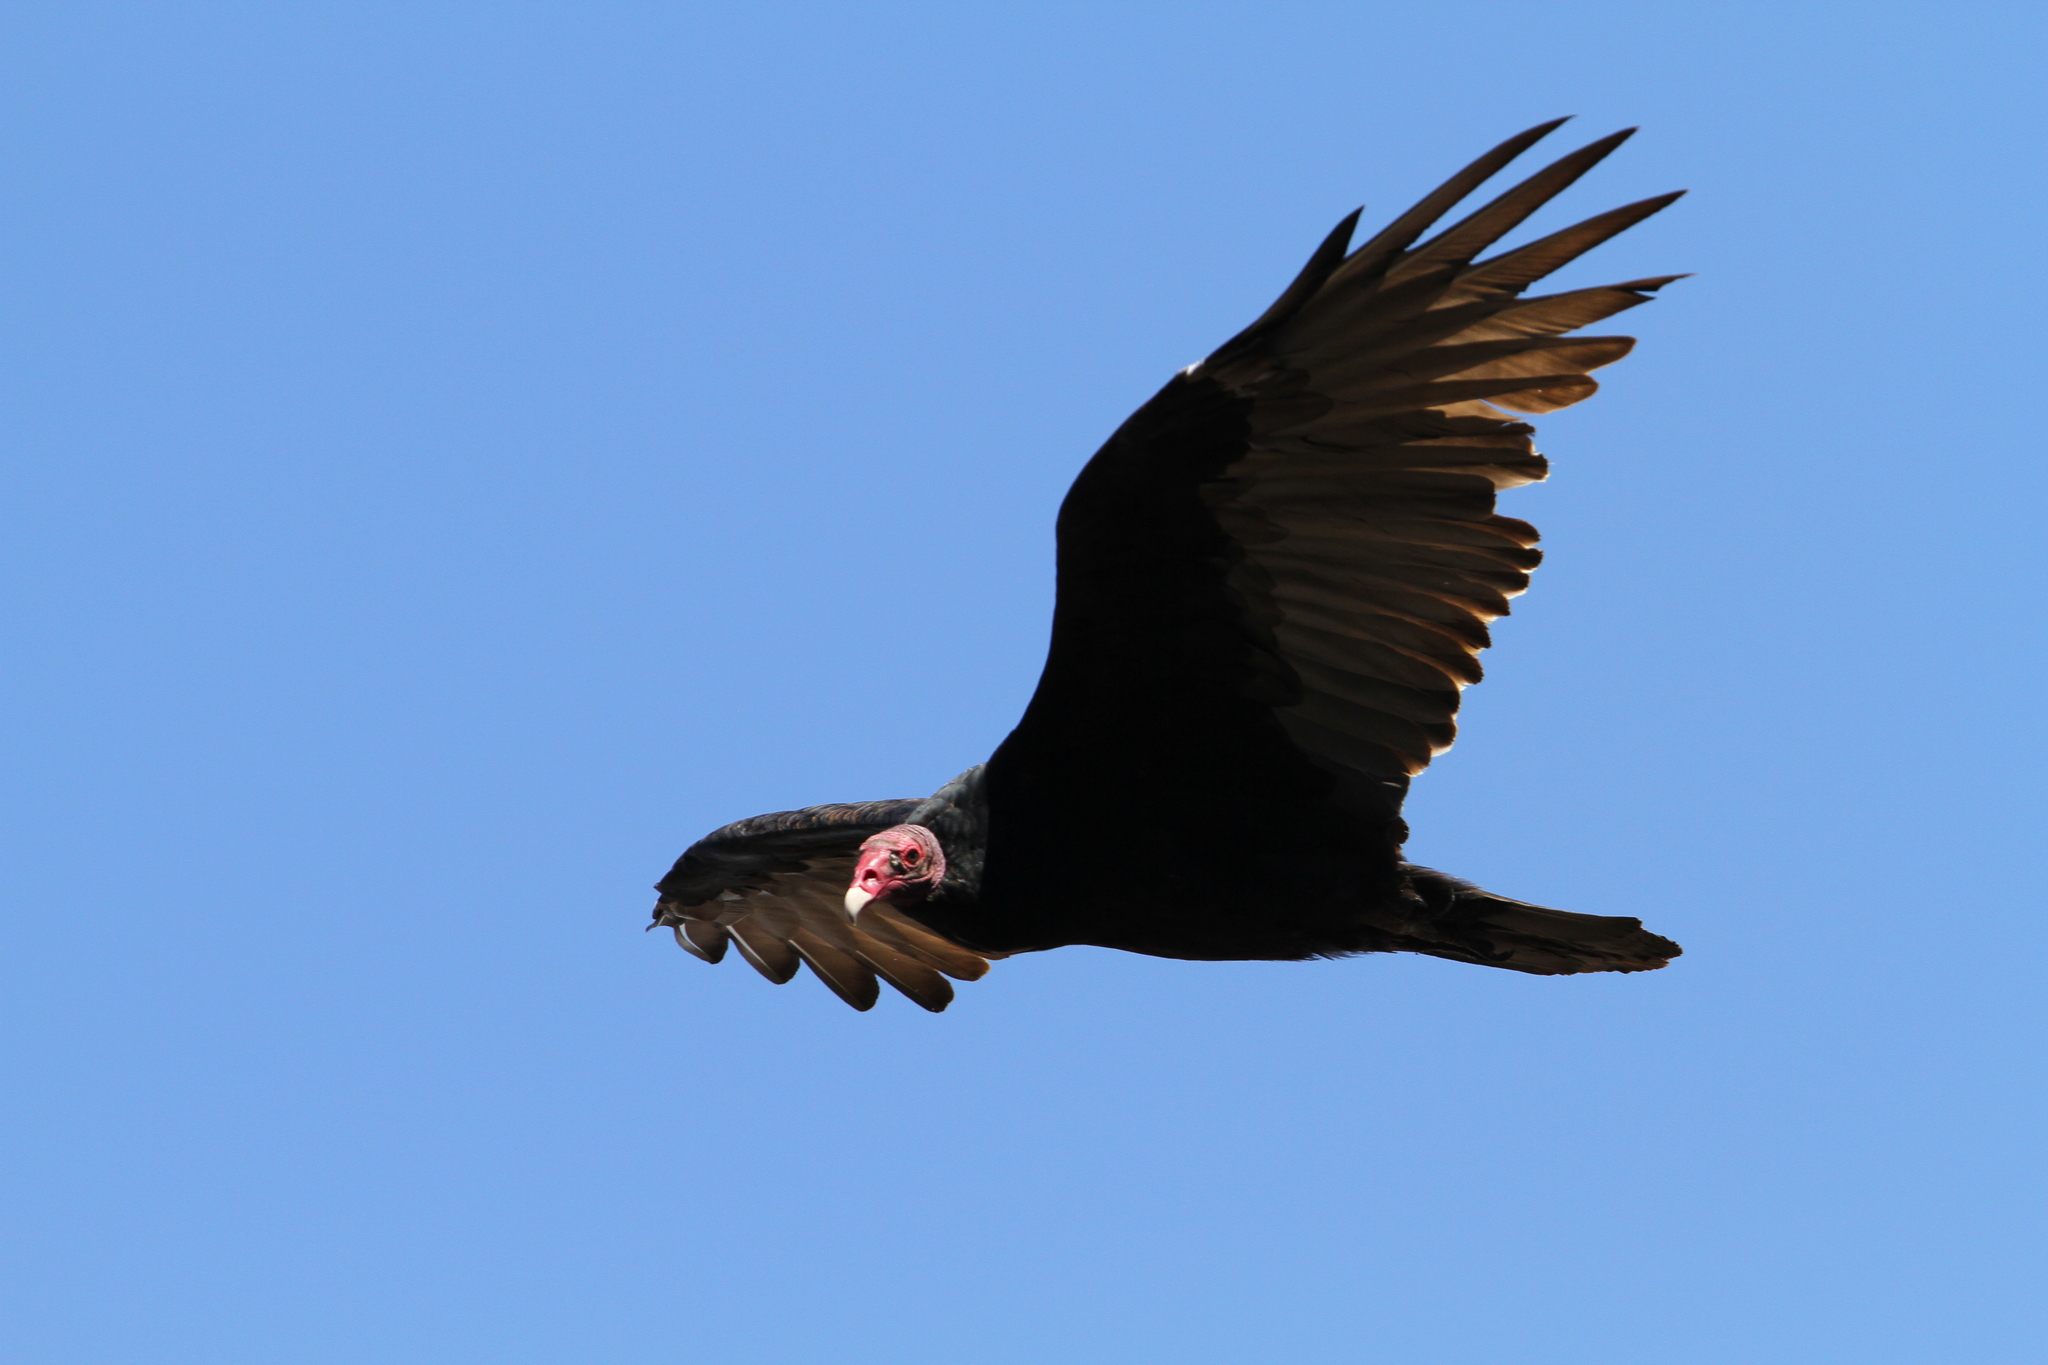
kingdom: Animalia
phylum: Chordata
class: Aves
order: Accipitriformes
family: Cathartidae
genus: Cathartes
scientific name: Cathartes aura
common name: Turkey vulture
